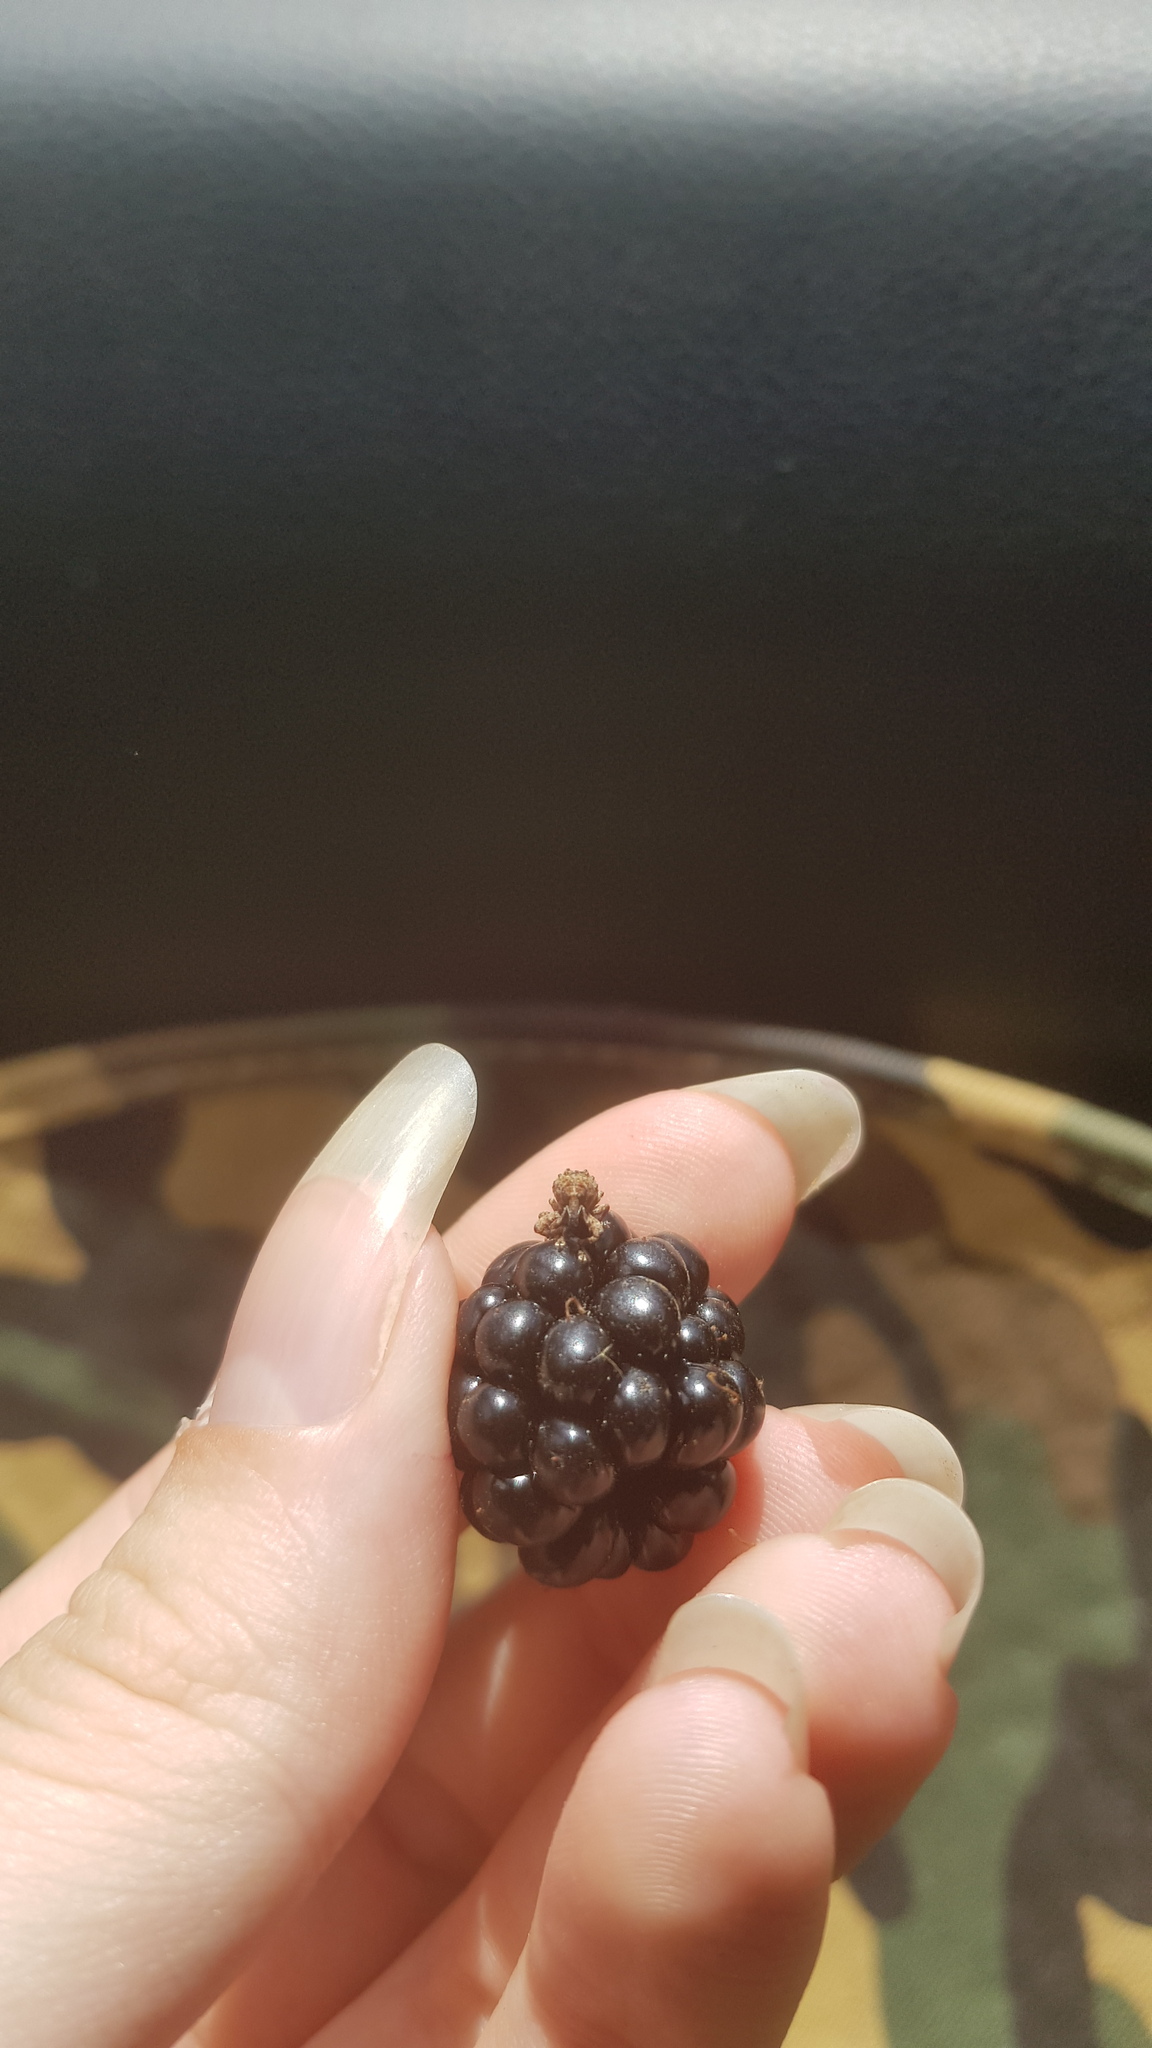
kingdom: Animalia
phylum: Arthropoda
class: Insecta
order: Coleoptera
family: Curculionidae
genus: Orthorhinus
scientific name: Orthorhinus klugii
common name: Vine weevil
